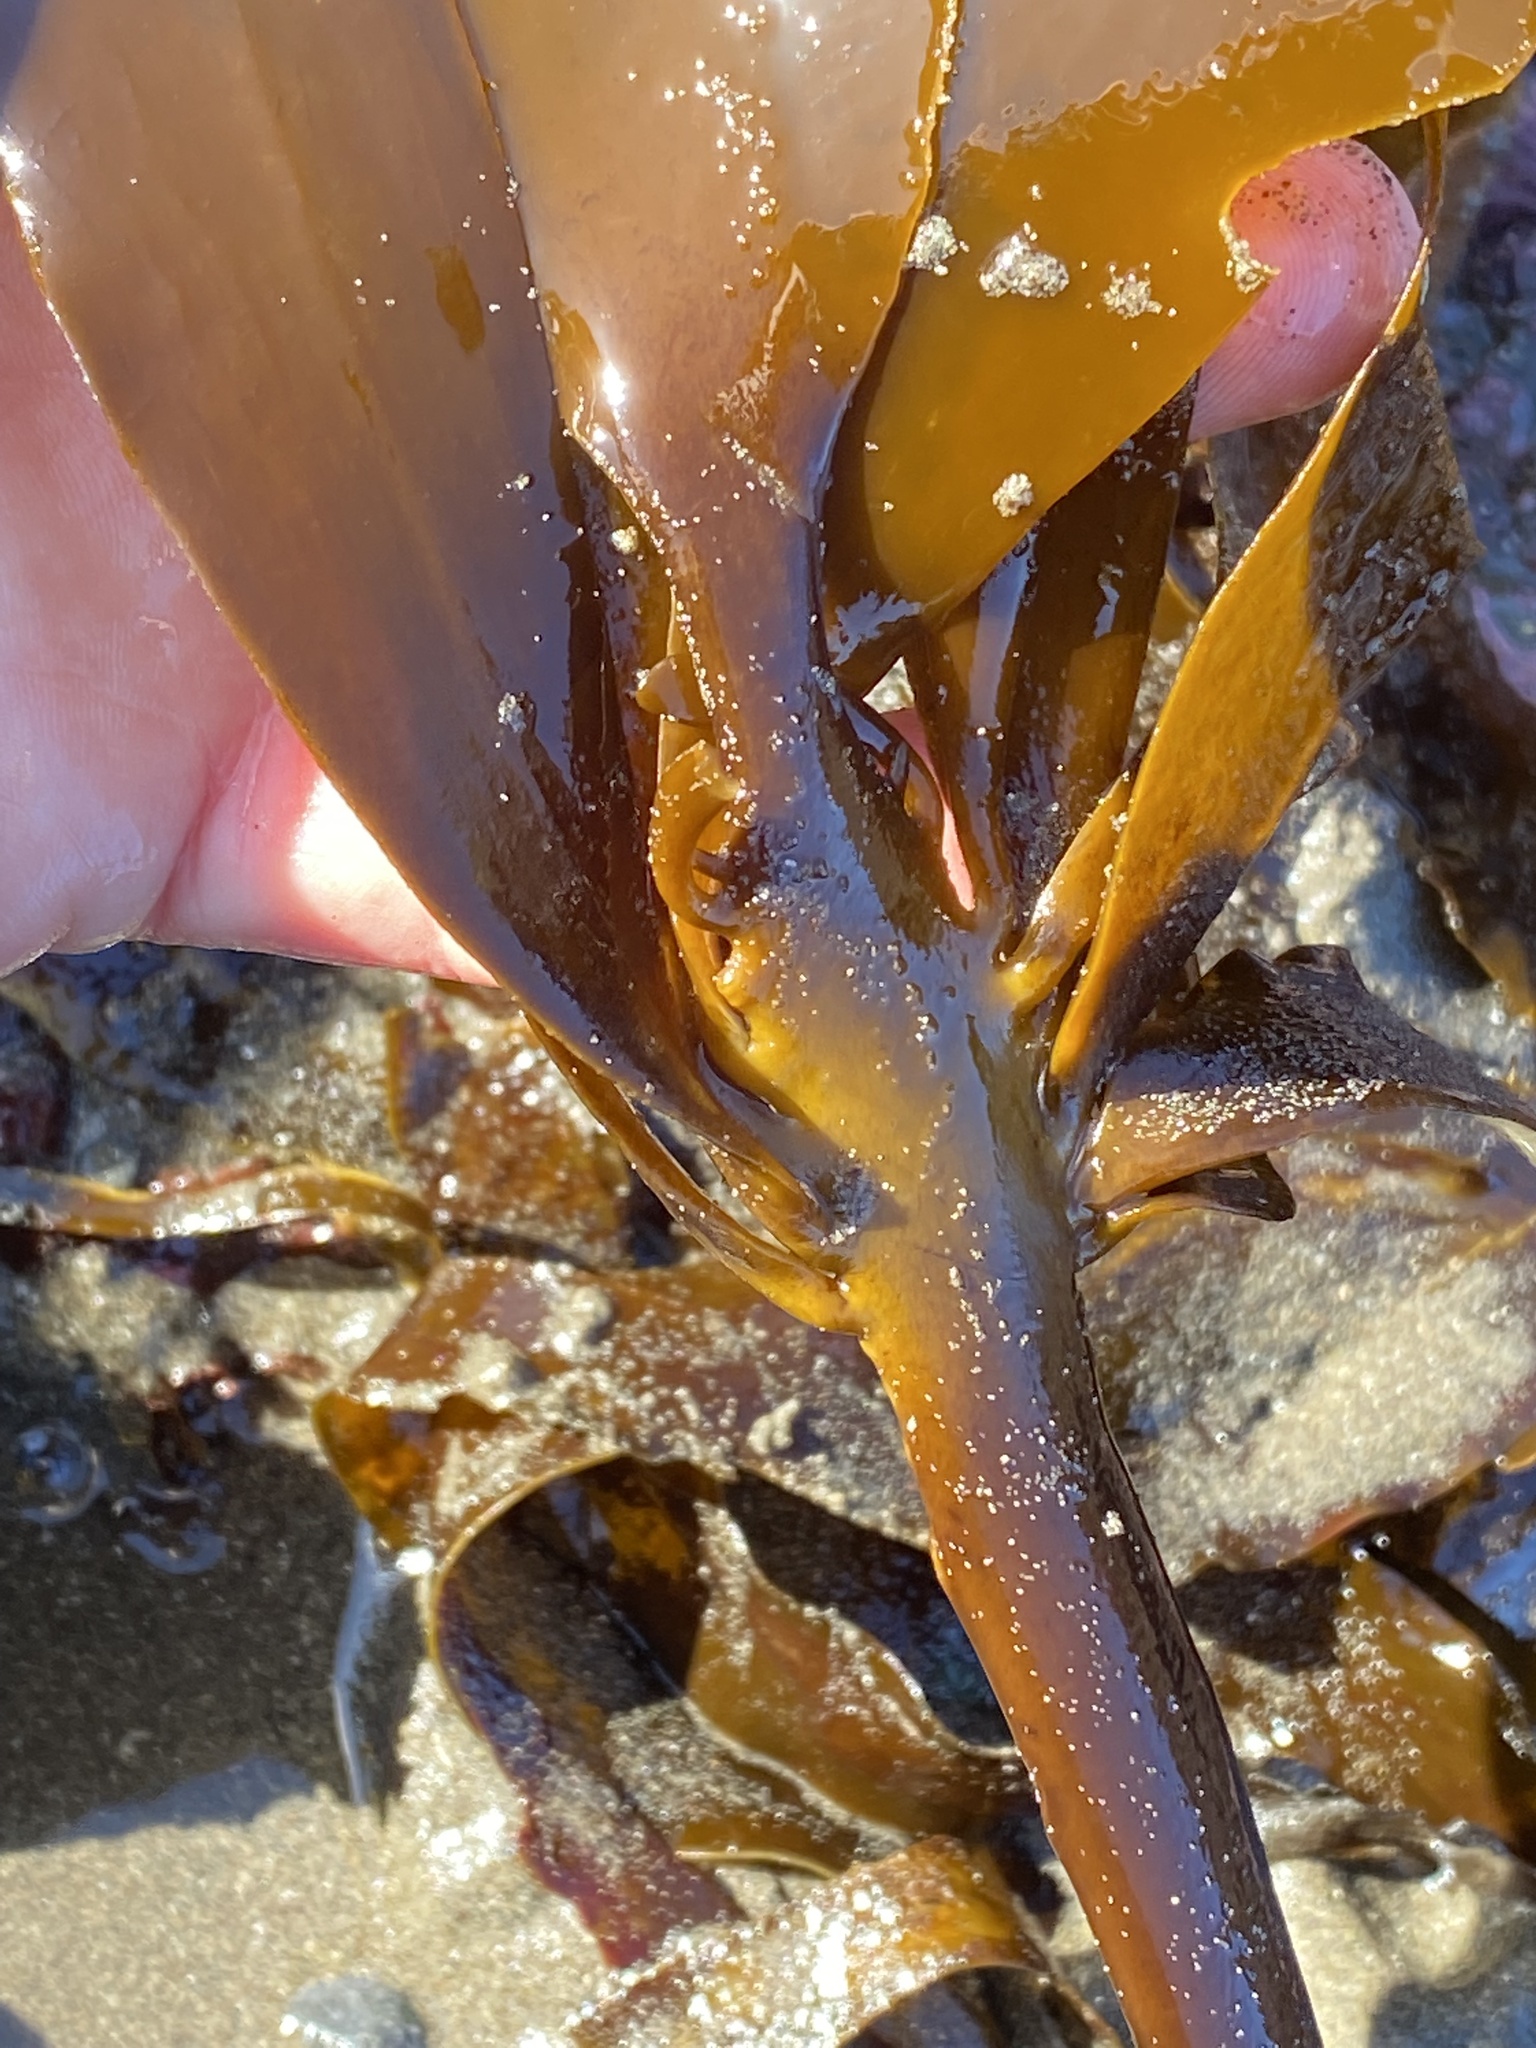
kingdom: Chromista
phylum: Ochrophyta
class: Phaeophyceae
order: Laminariales
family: Alariaceae
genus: Pterygophora
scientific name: Pterygophora californica
